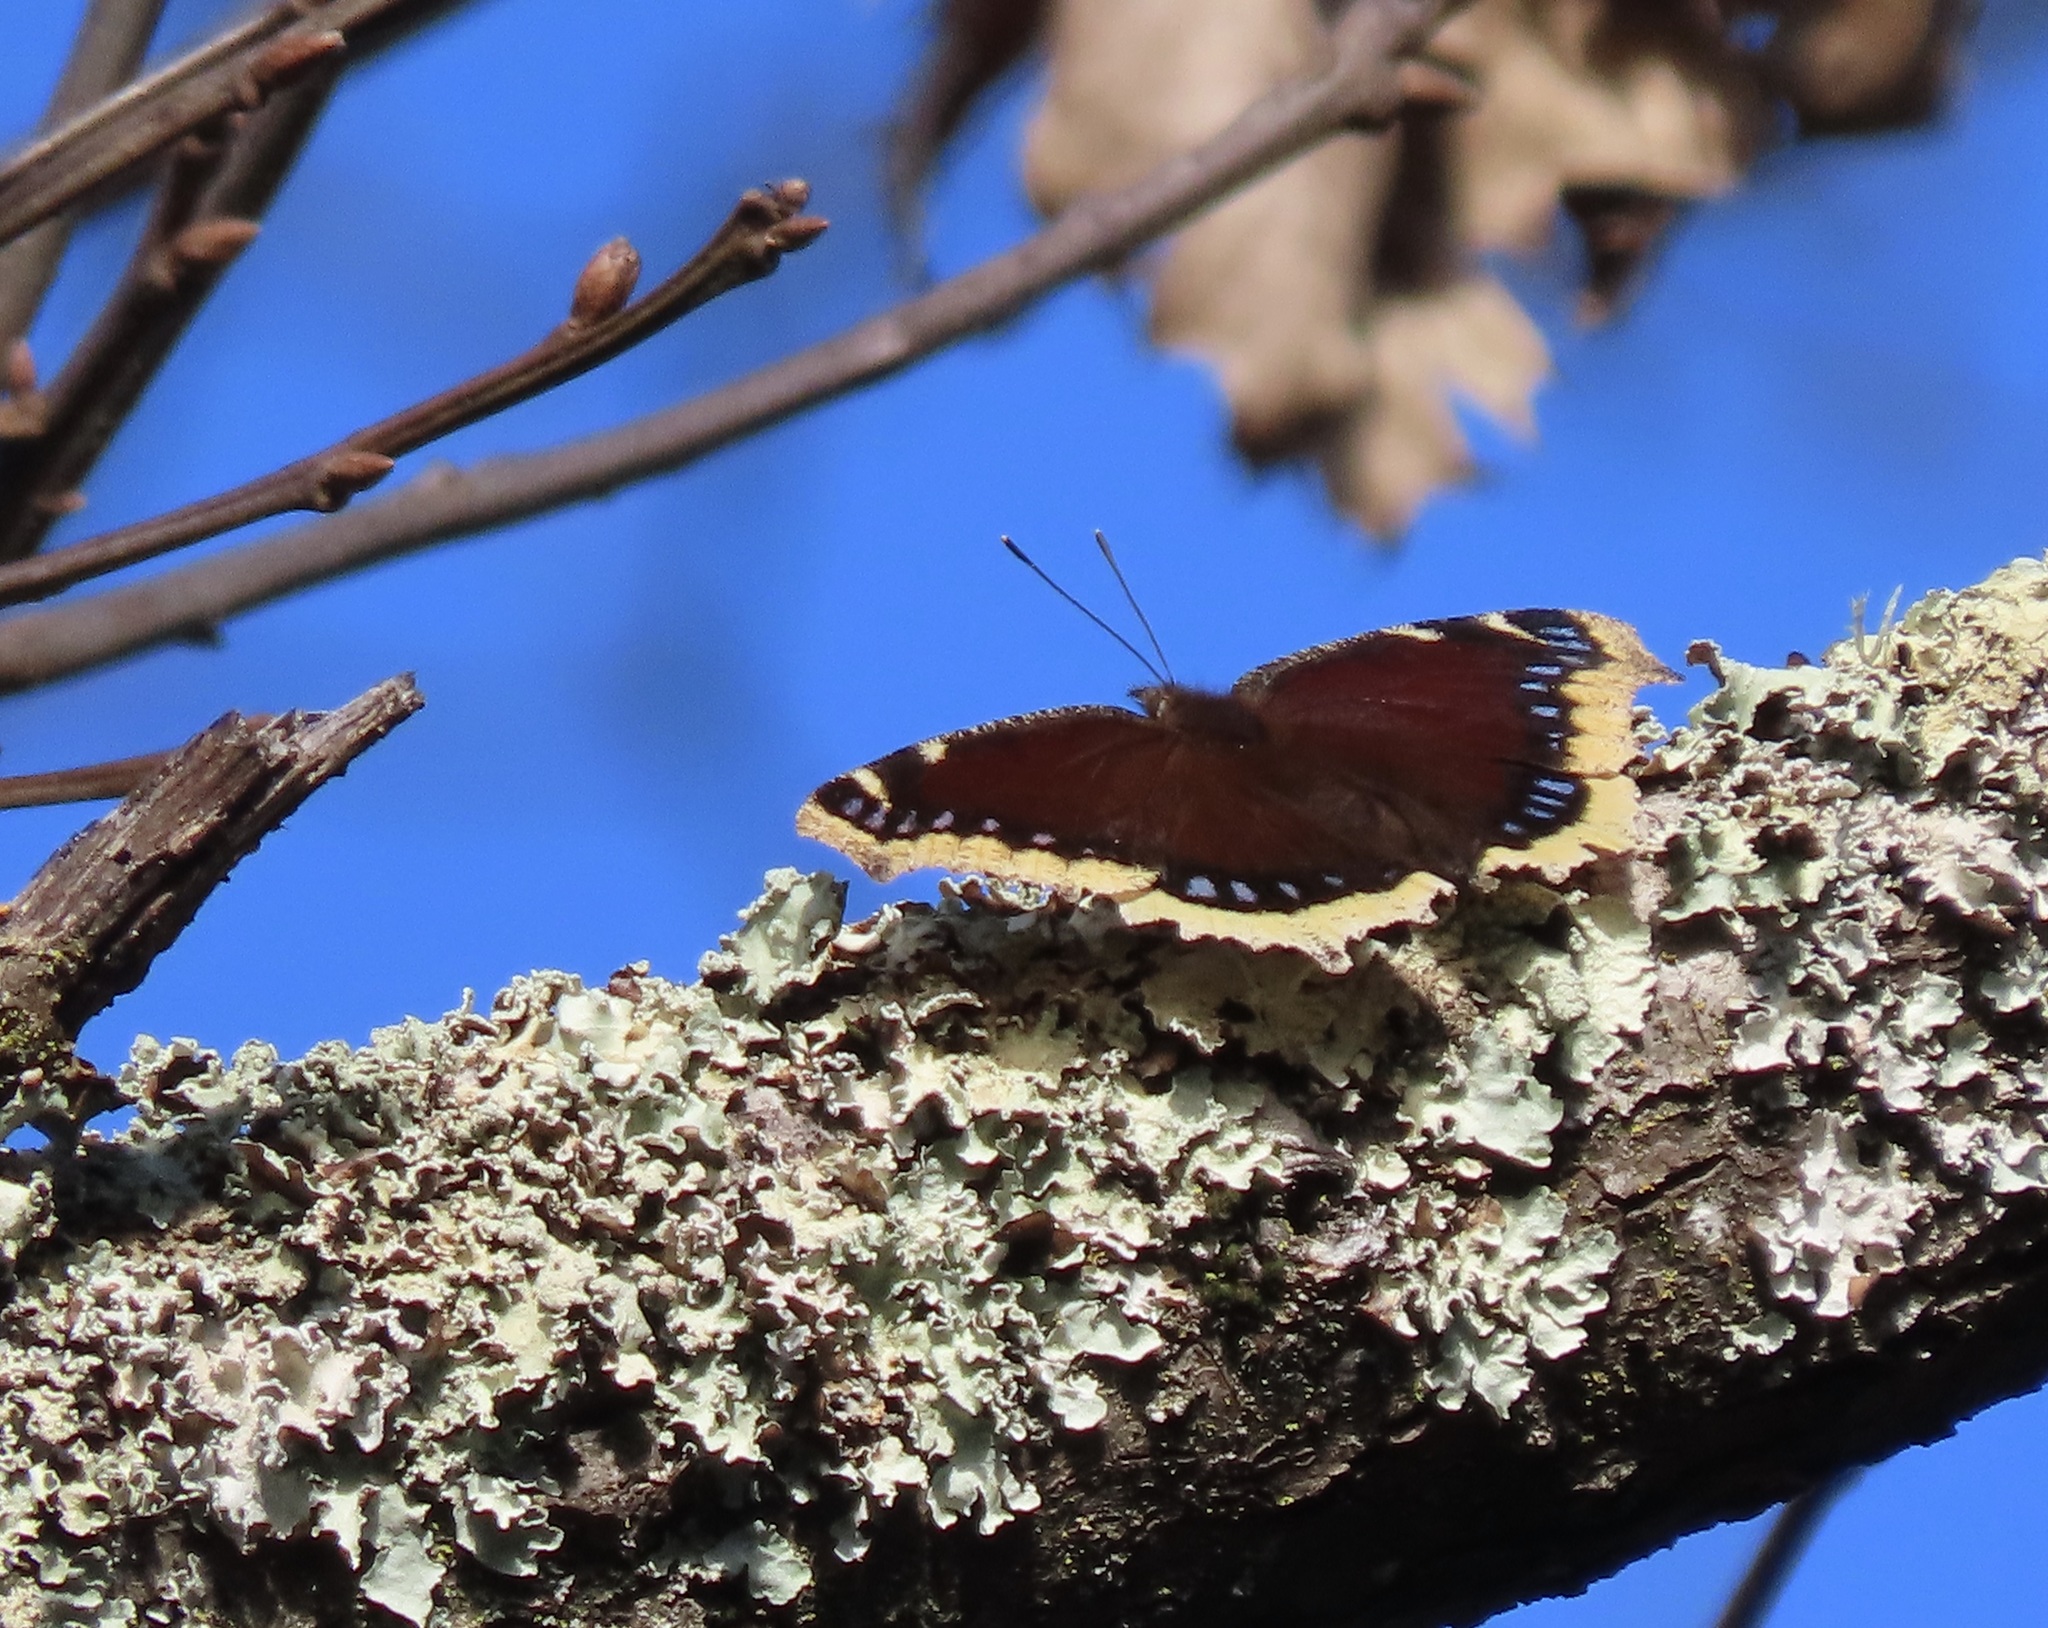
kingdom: Animalia
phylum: Arthropoda
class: Insecta
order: Lepidoptera
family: Nymphalidae
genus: Nymphalis
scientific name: Nymphalis antiopa
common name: Camberwell beauty
